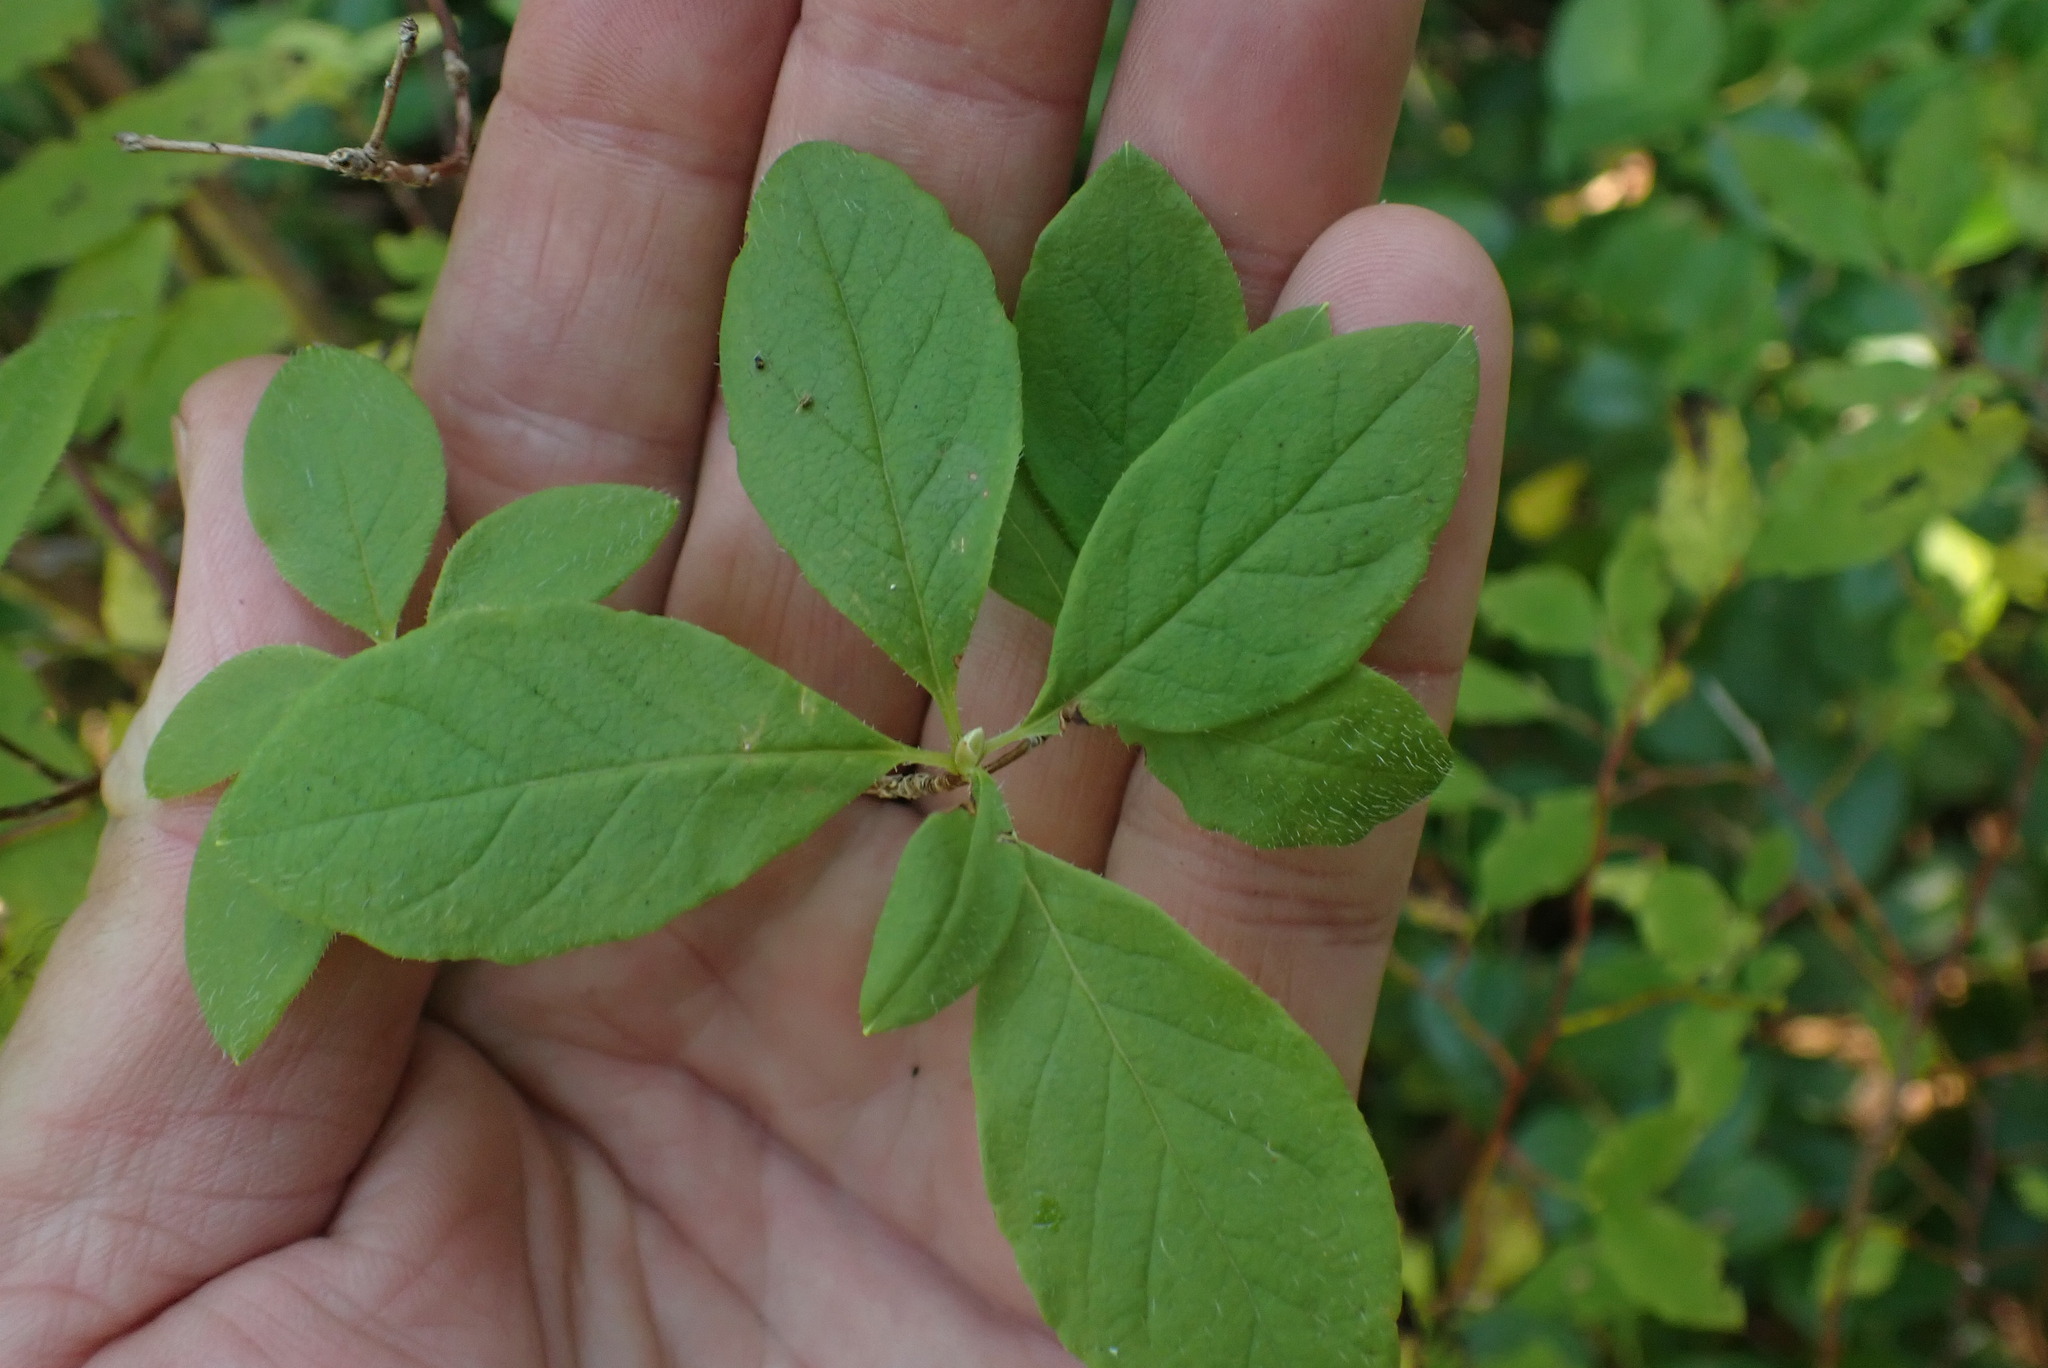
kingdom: Plantae
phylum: Tracheophyta
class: Magnoliopsida
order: Ericales
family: Ericaceae
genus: Rhododendron
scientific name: Rhododendron menziesii
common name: Pacific menziesia
